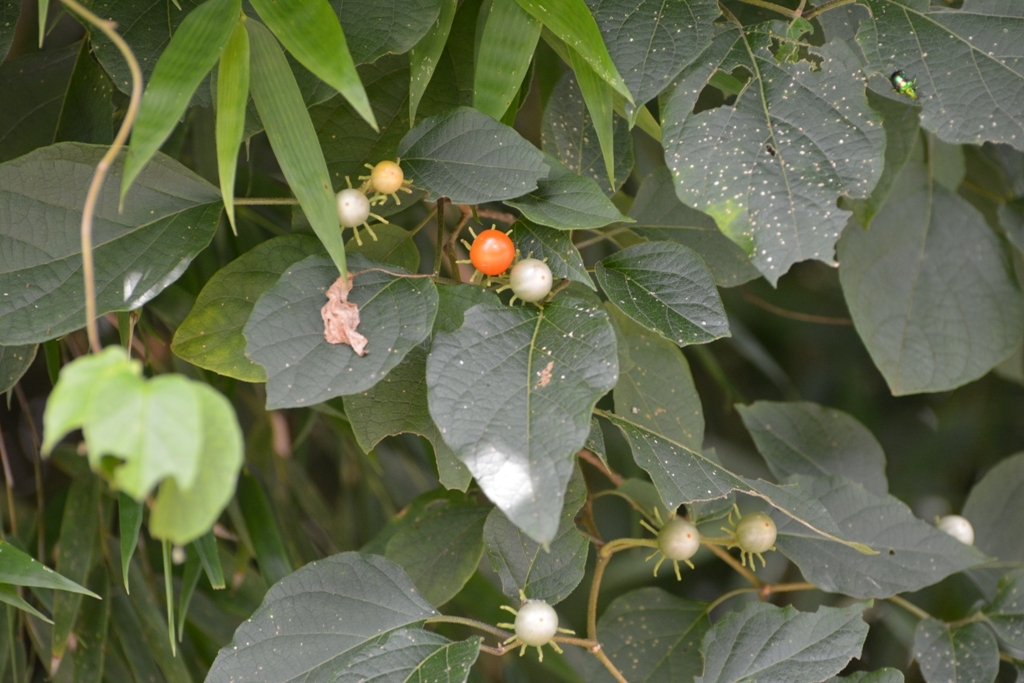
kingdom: Plantae
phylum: Tracheophyta
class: Magnoliopsida
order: Solanales
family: Solanaceae
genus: Lycianthes
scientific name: Lycianthes scandens
